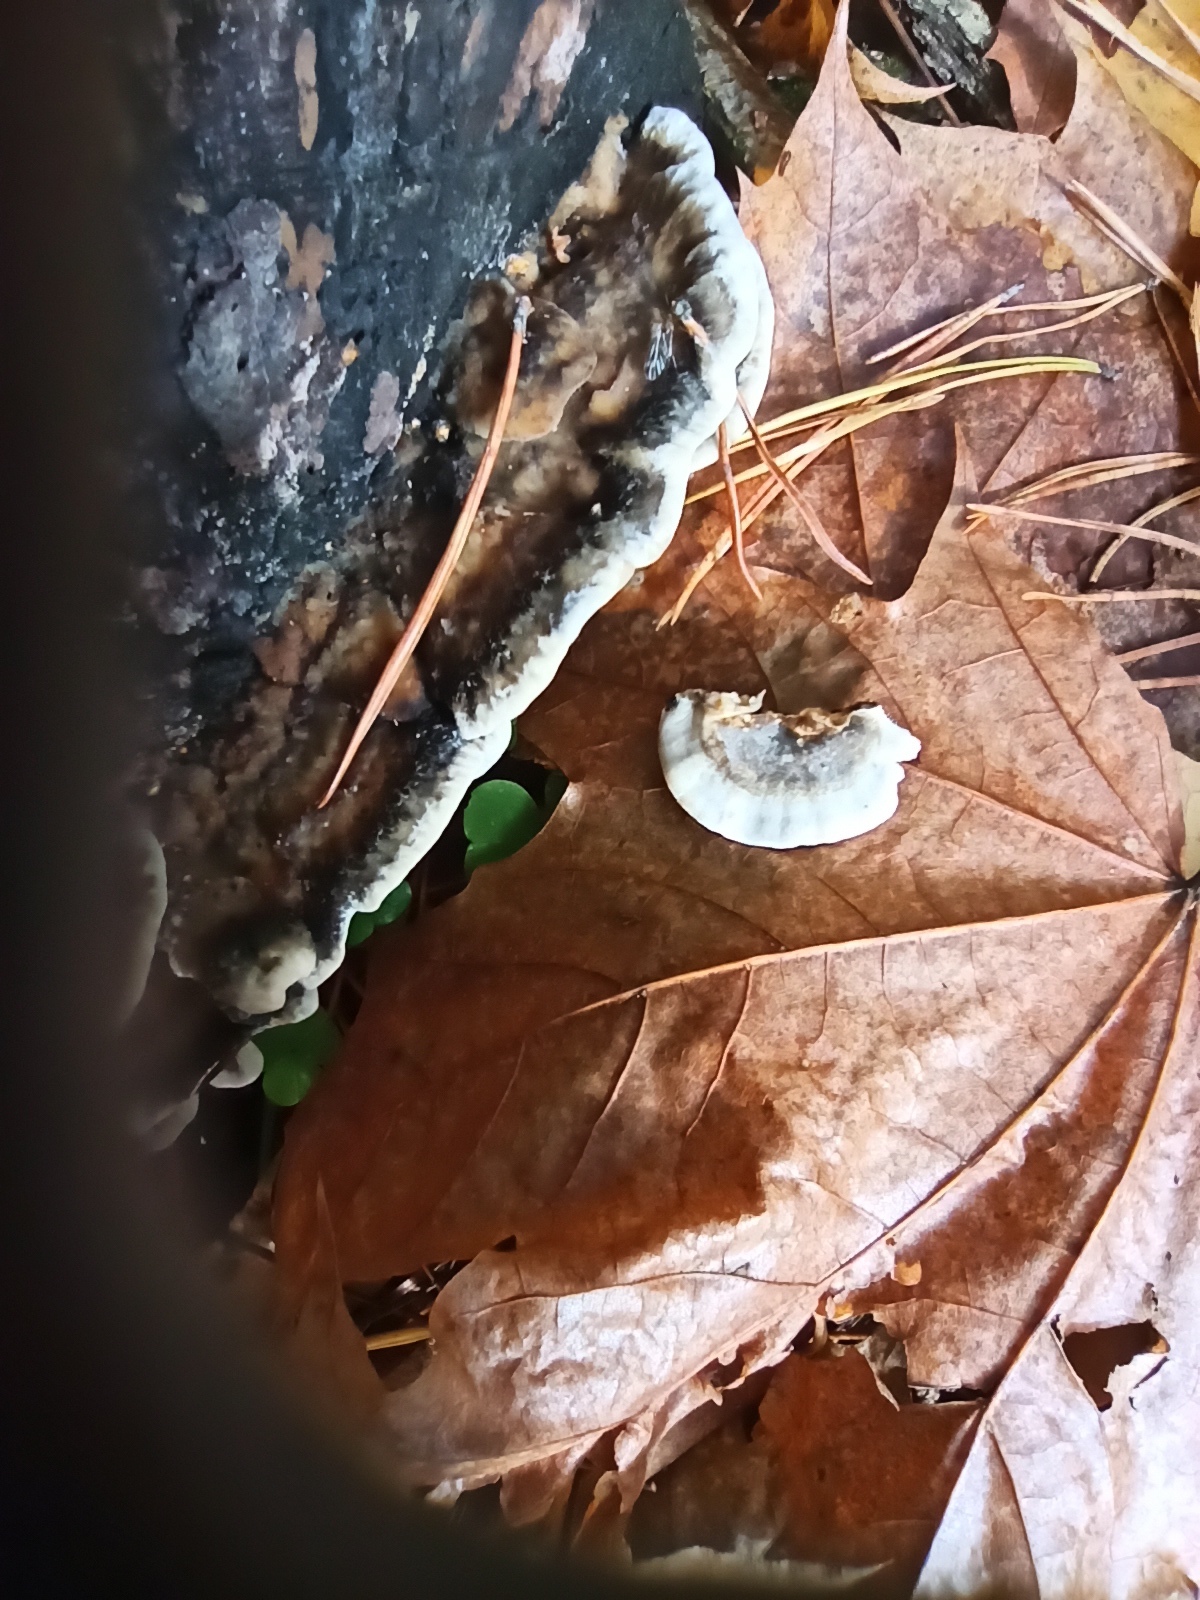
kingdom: Fungi
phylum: Basidiomycota
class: Agaricomycetes
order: Polyporales
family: Phanerochaetaceae
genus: Bjerkandera
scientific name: Bjerkandera adusta
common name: Smoky bracket
